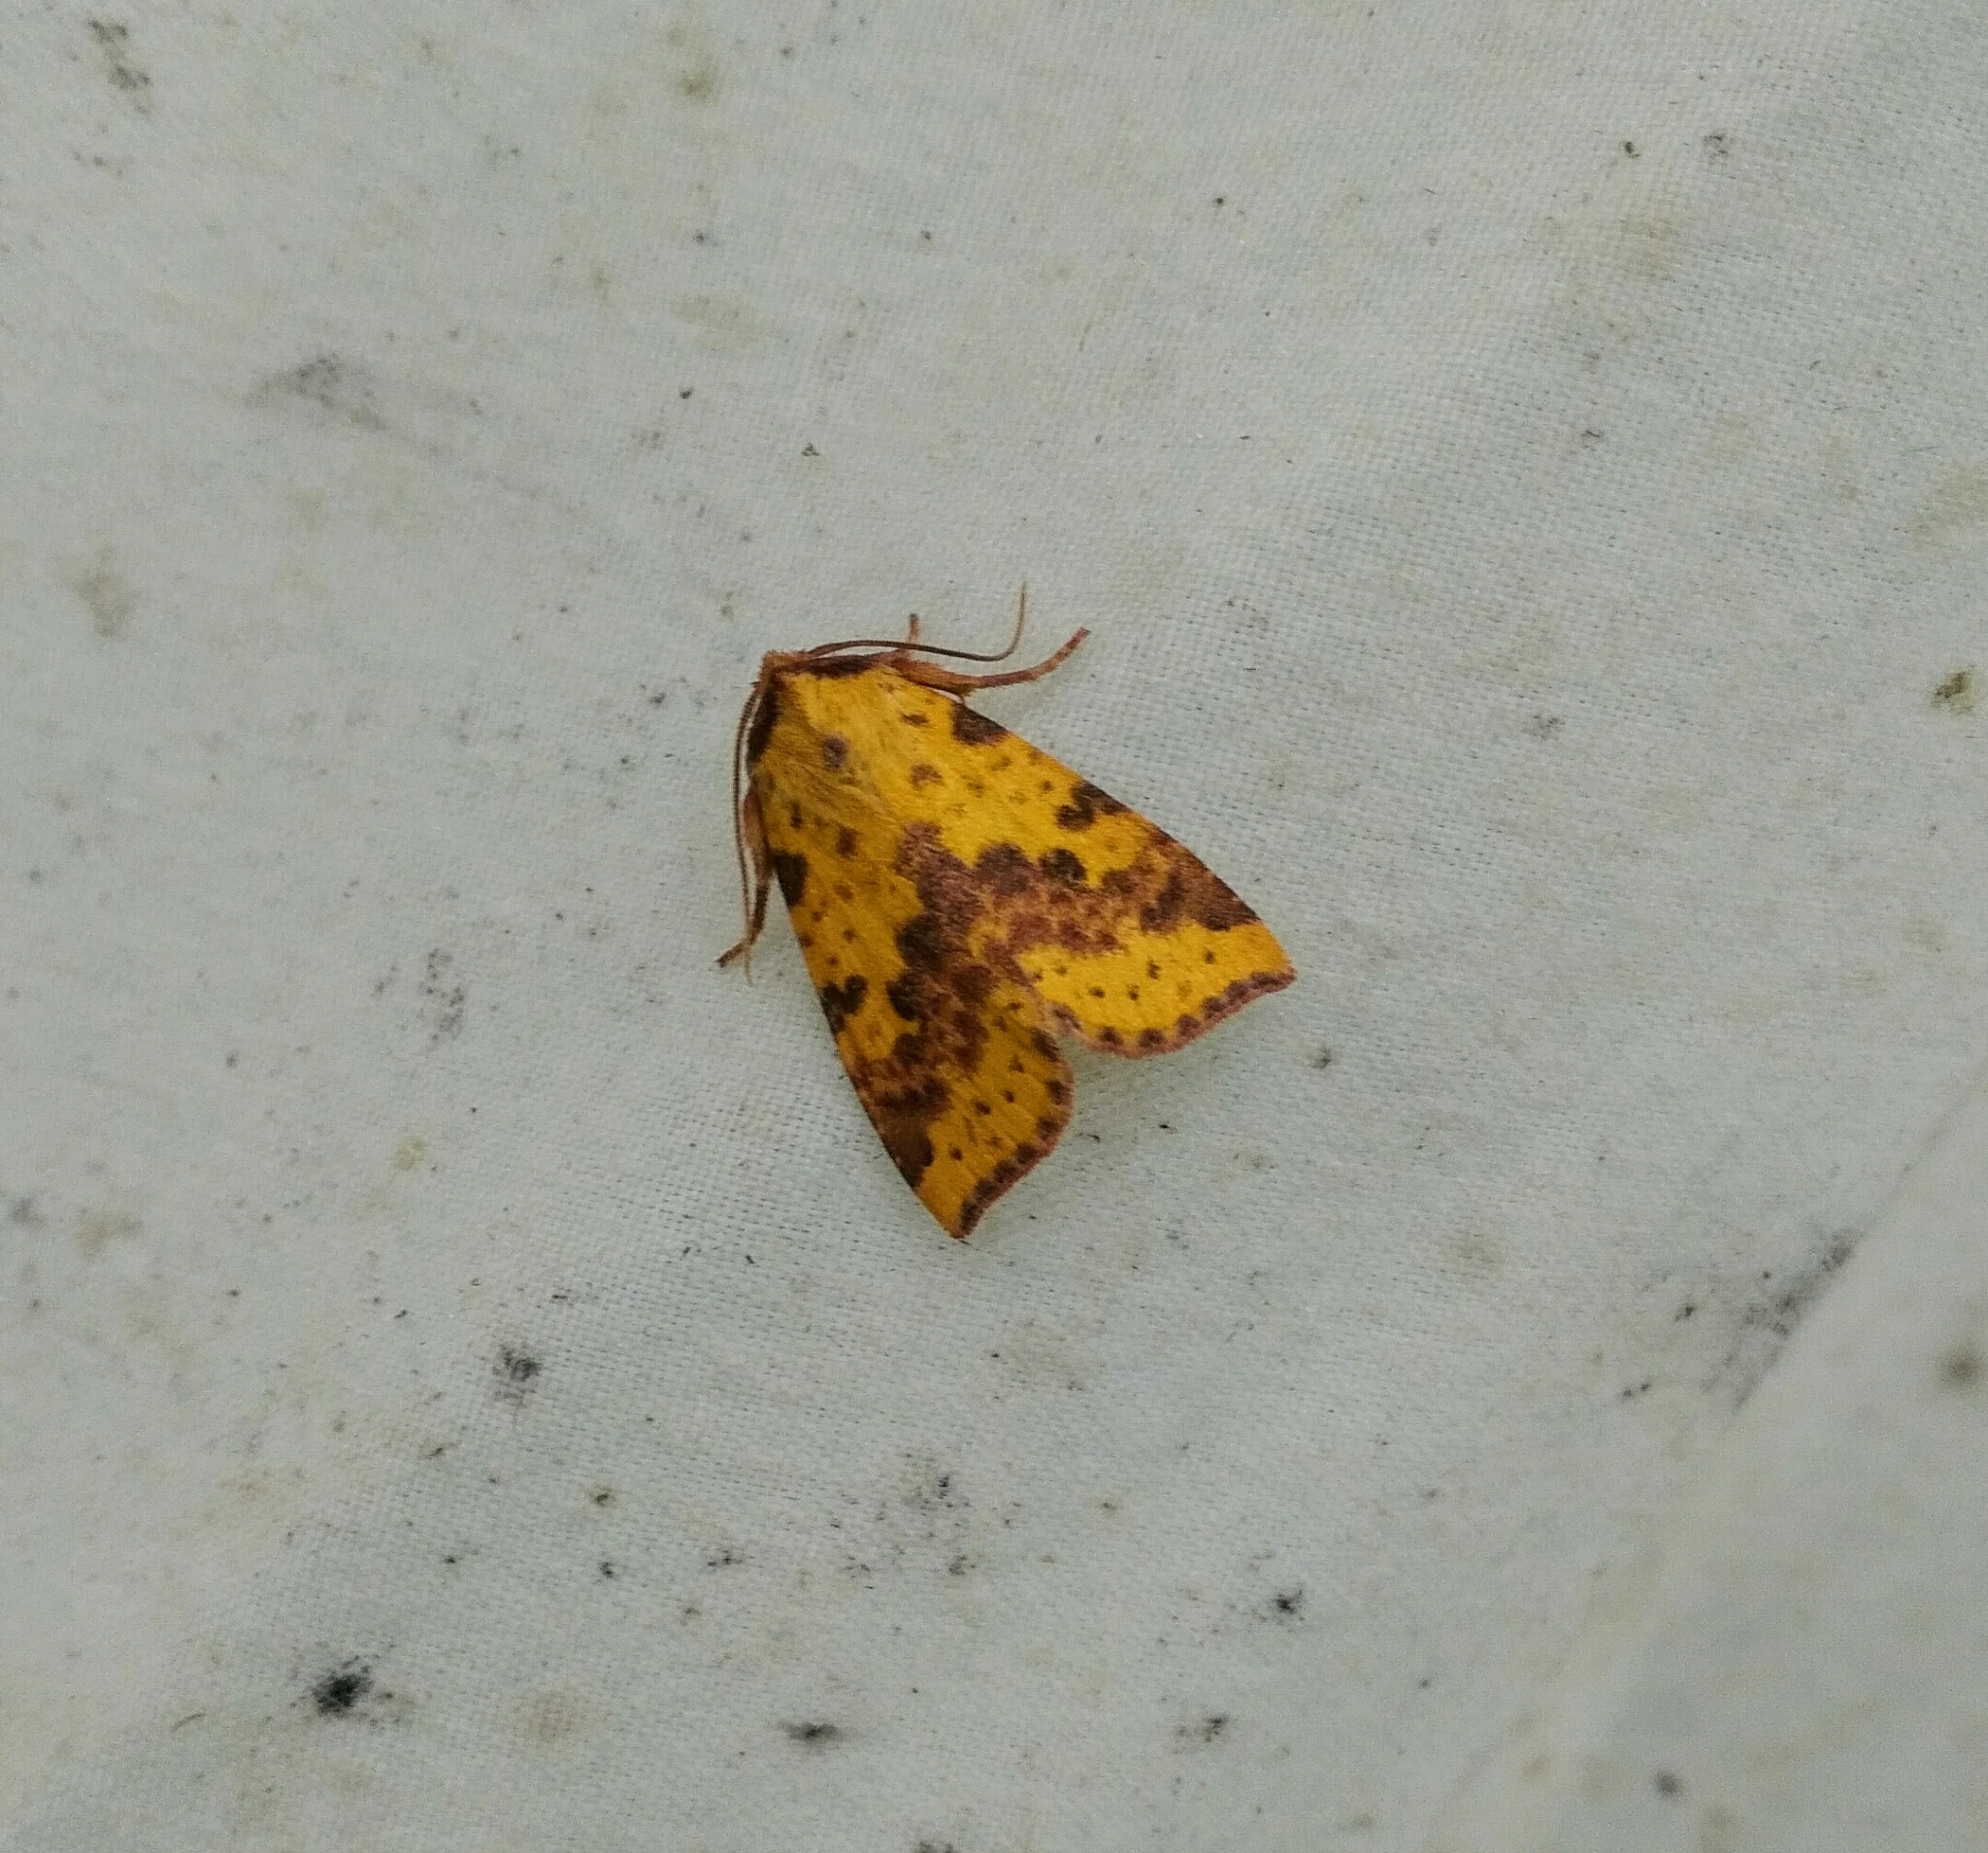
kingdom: Animalia
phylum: Arthropoda
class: Insecta
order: Lepidoptera
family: Noctuidae
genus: Xanthia
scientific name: Xanthia tatago
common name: Pink-banded sallow
